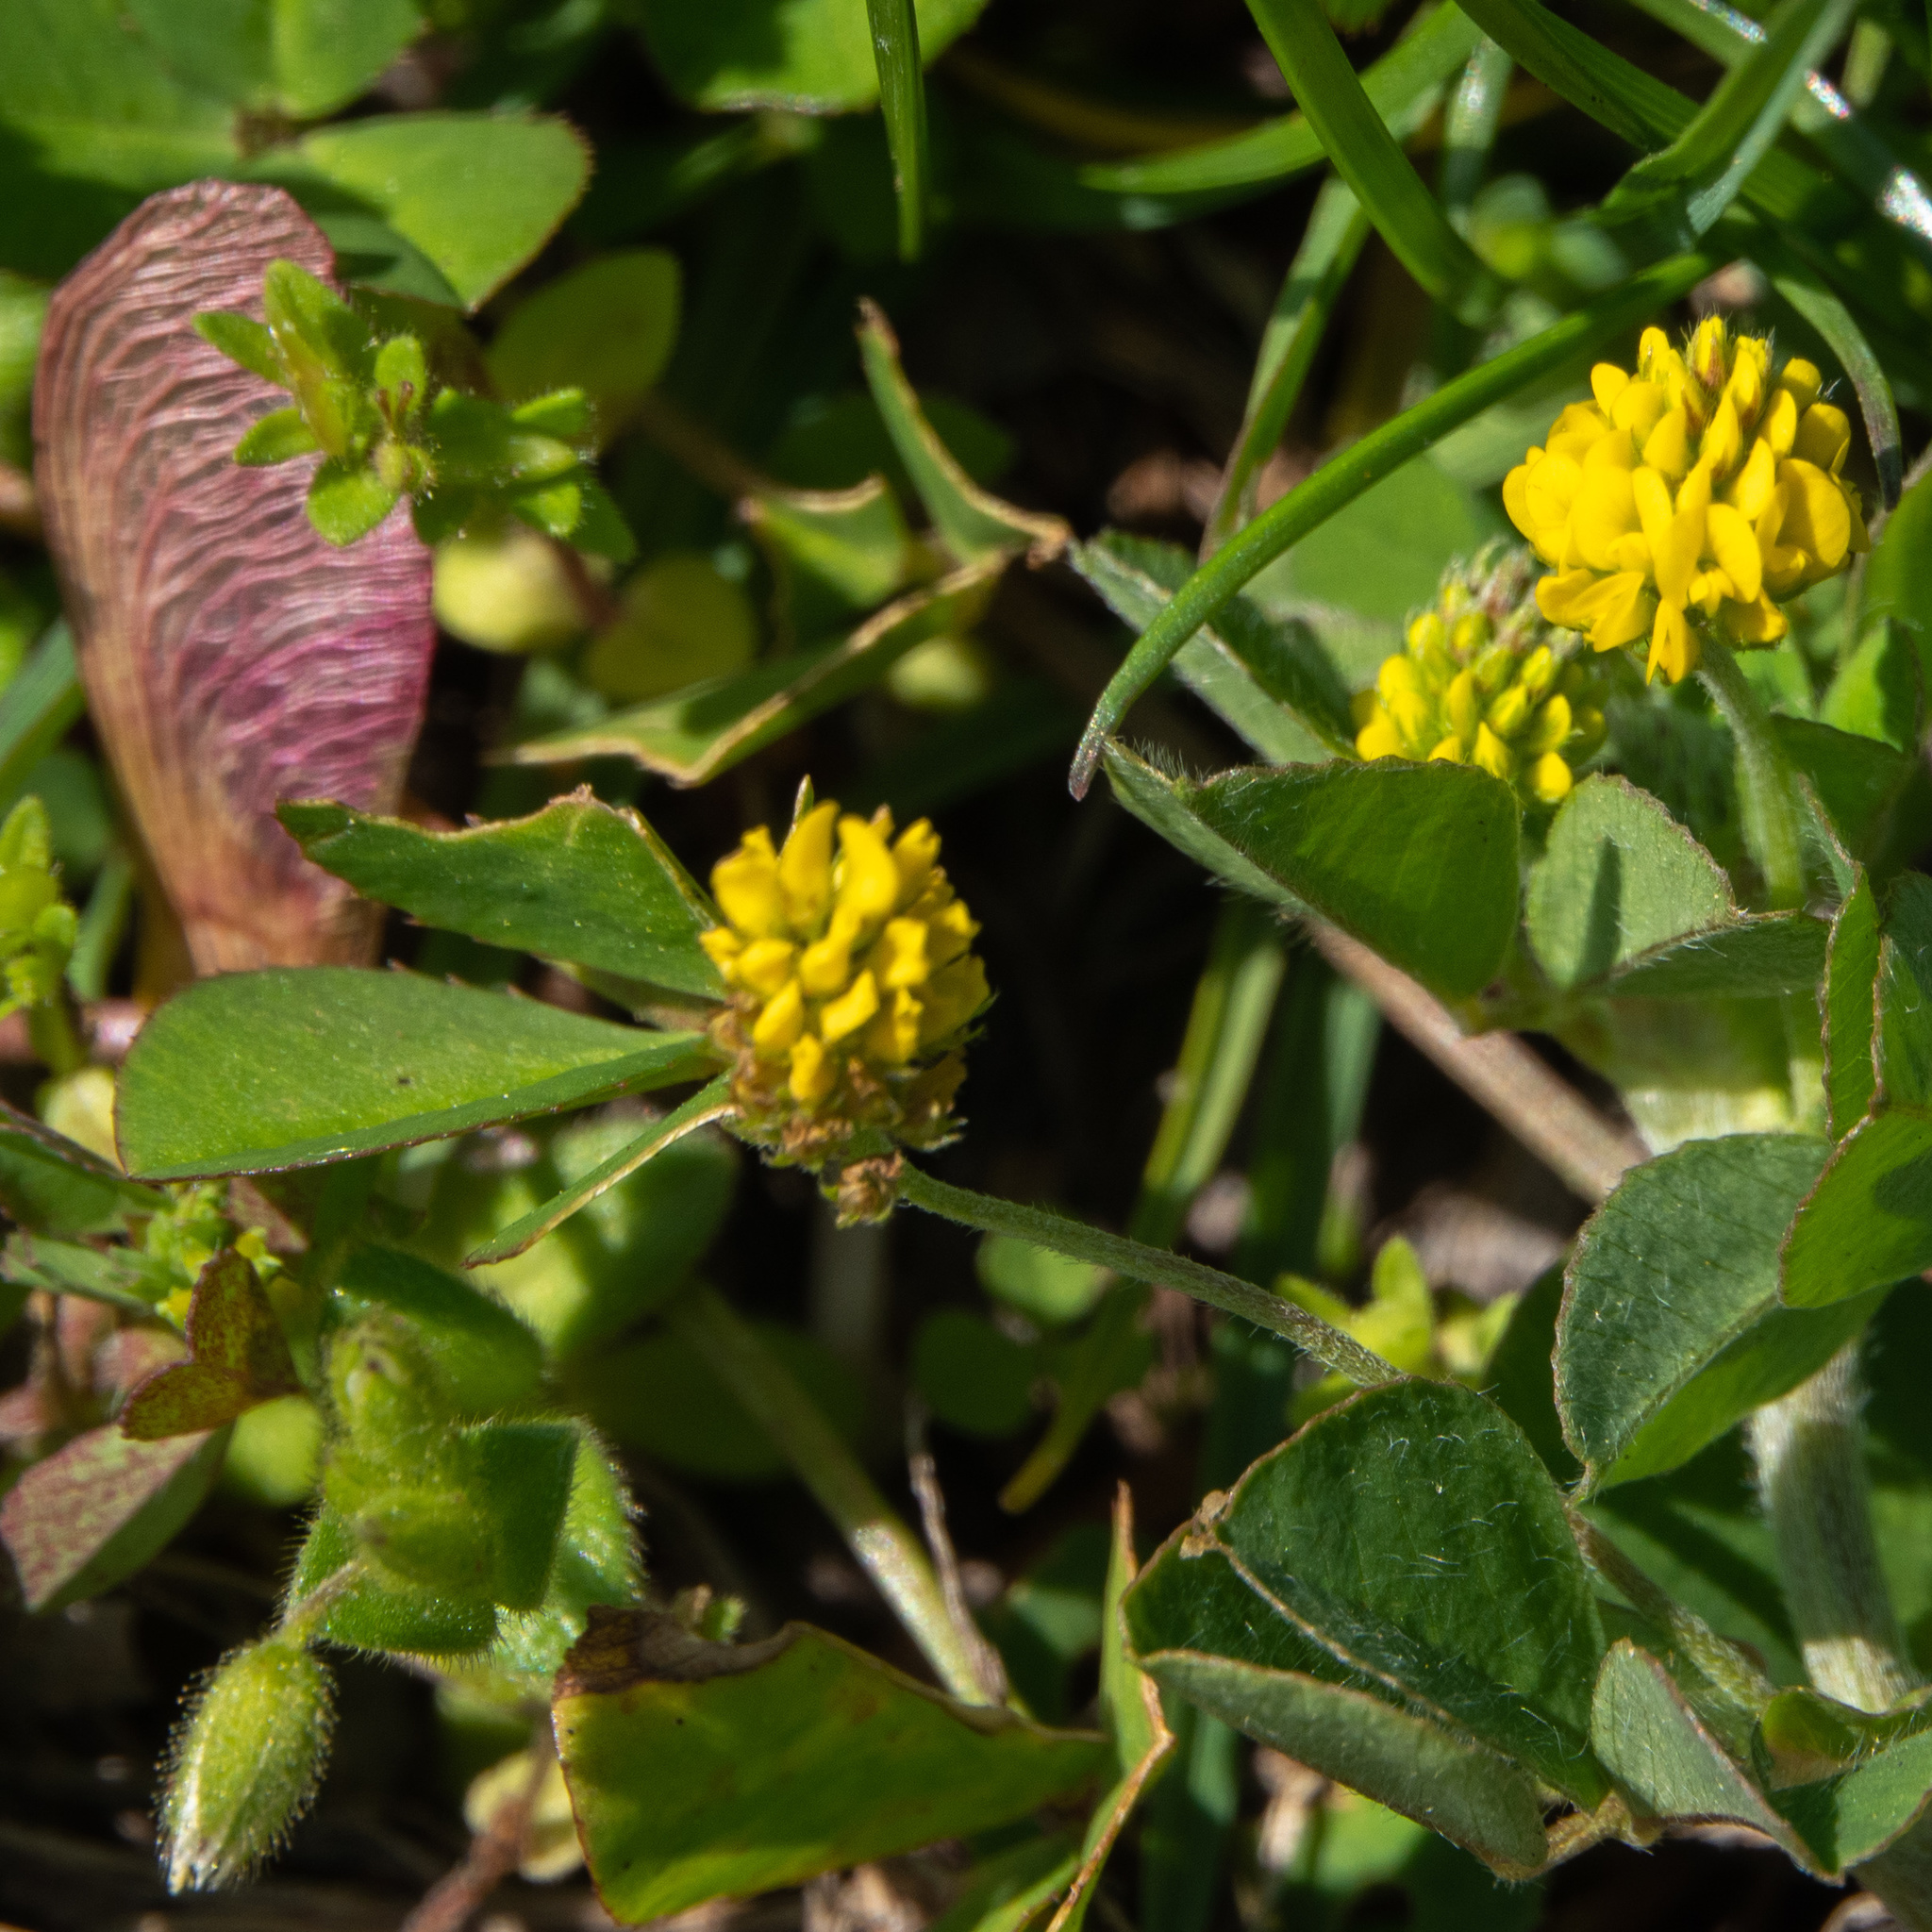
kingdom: Plantae
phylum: Tracheophyta
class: Magnoliopsida
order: Fabales
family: Fabaceae
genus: Medicago
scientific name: Medicago lupulina
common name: Black medick
